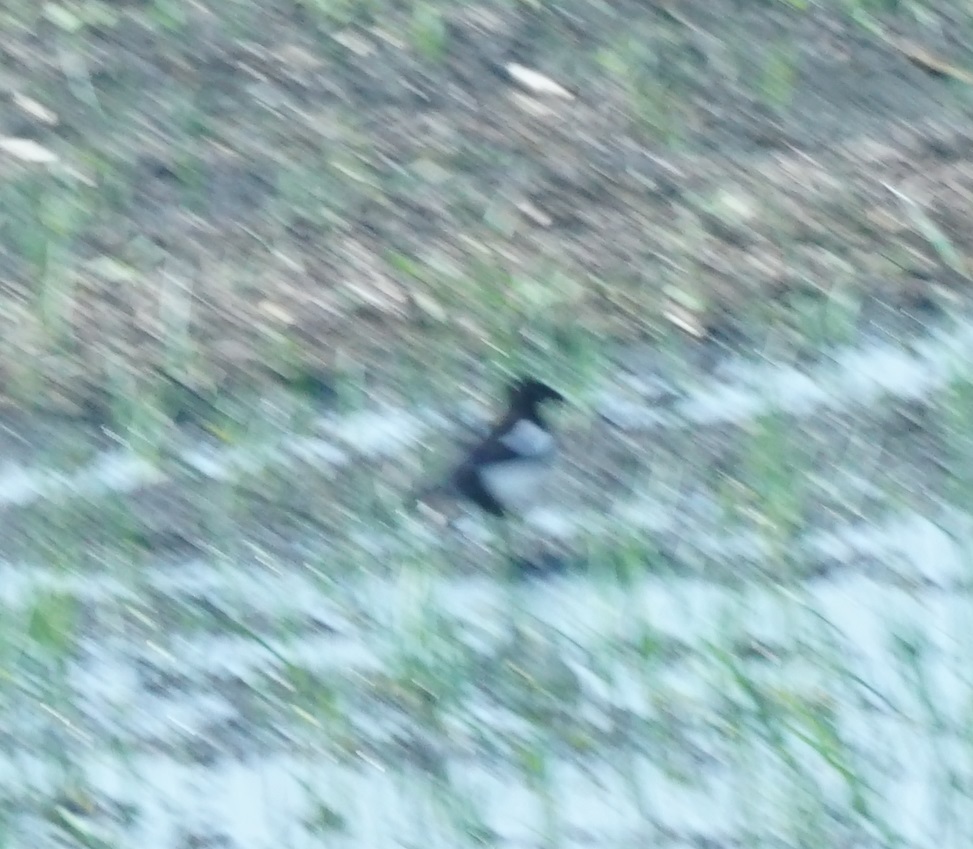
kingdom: Animalia
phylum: Chordata
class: Aves
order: Passeriformes
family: Corvidae
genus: Pica
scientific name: Pica pica
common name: Eurasian magpie
